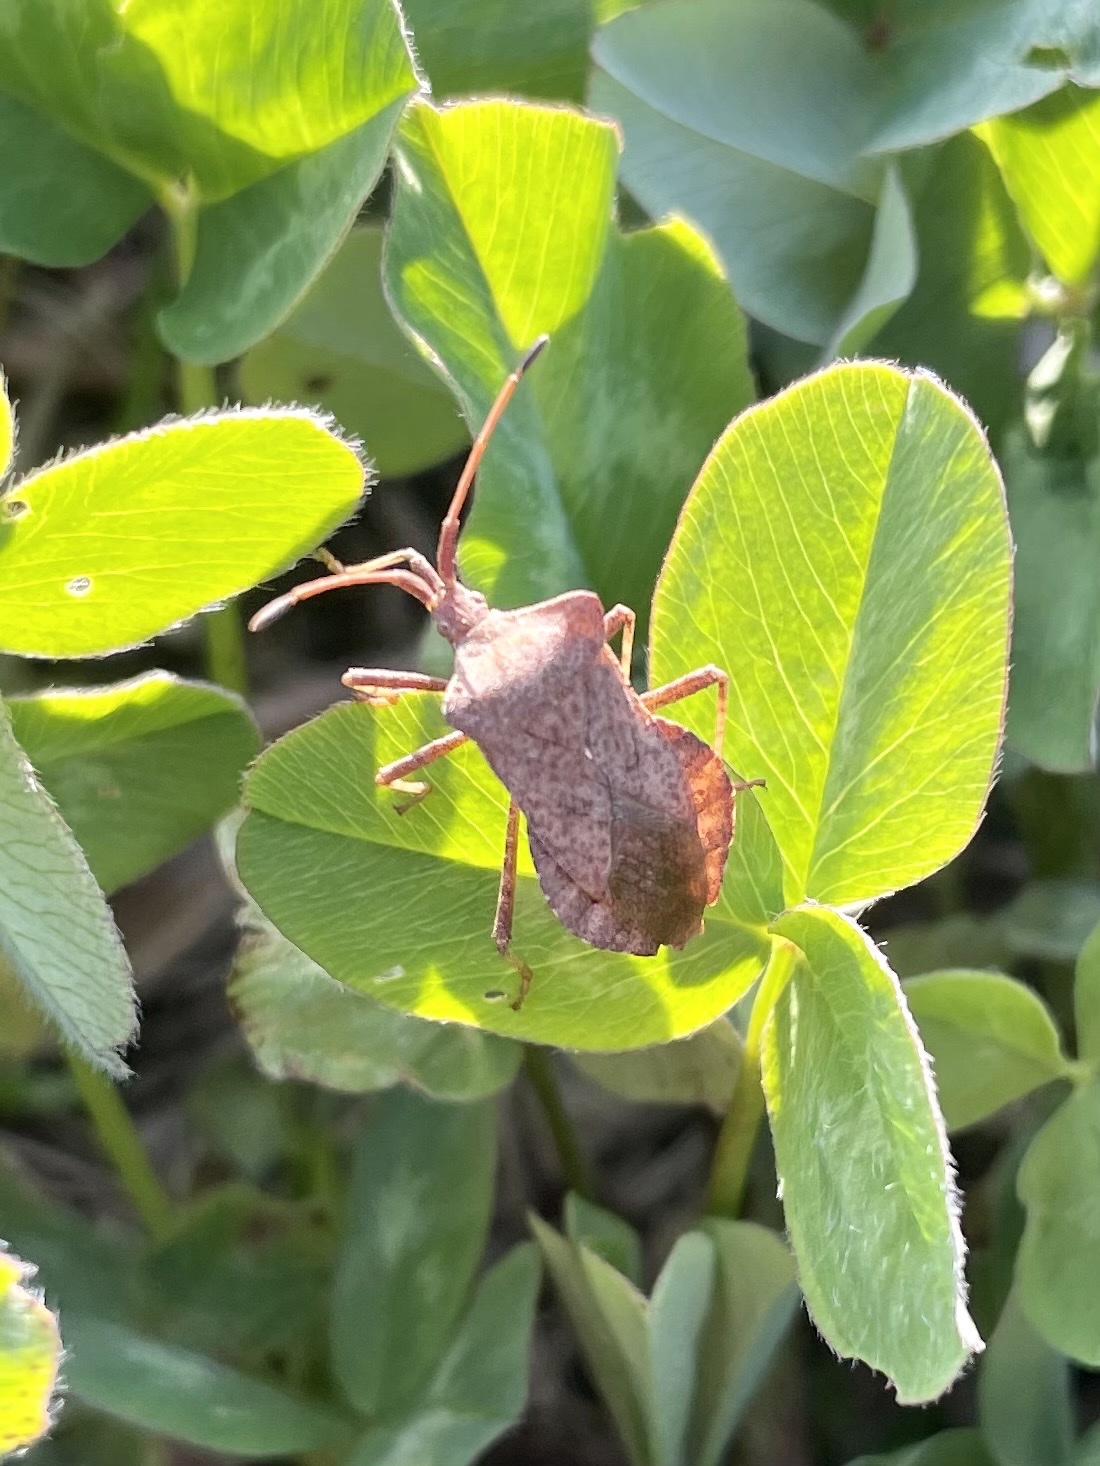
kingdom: Animalia
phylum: Arthropoda
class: Insecta
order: Hemiptera
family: Coreidae
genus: Coreus
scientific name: Coreus marginatus
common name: Dock bug
